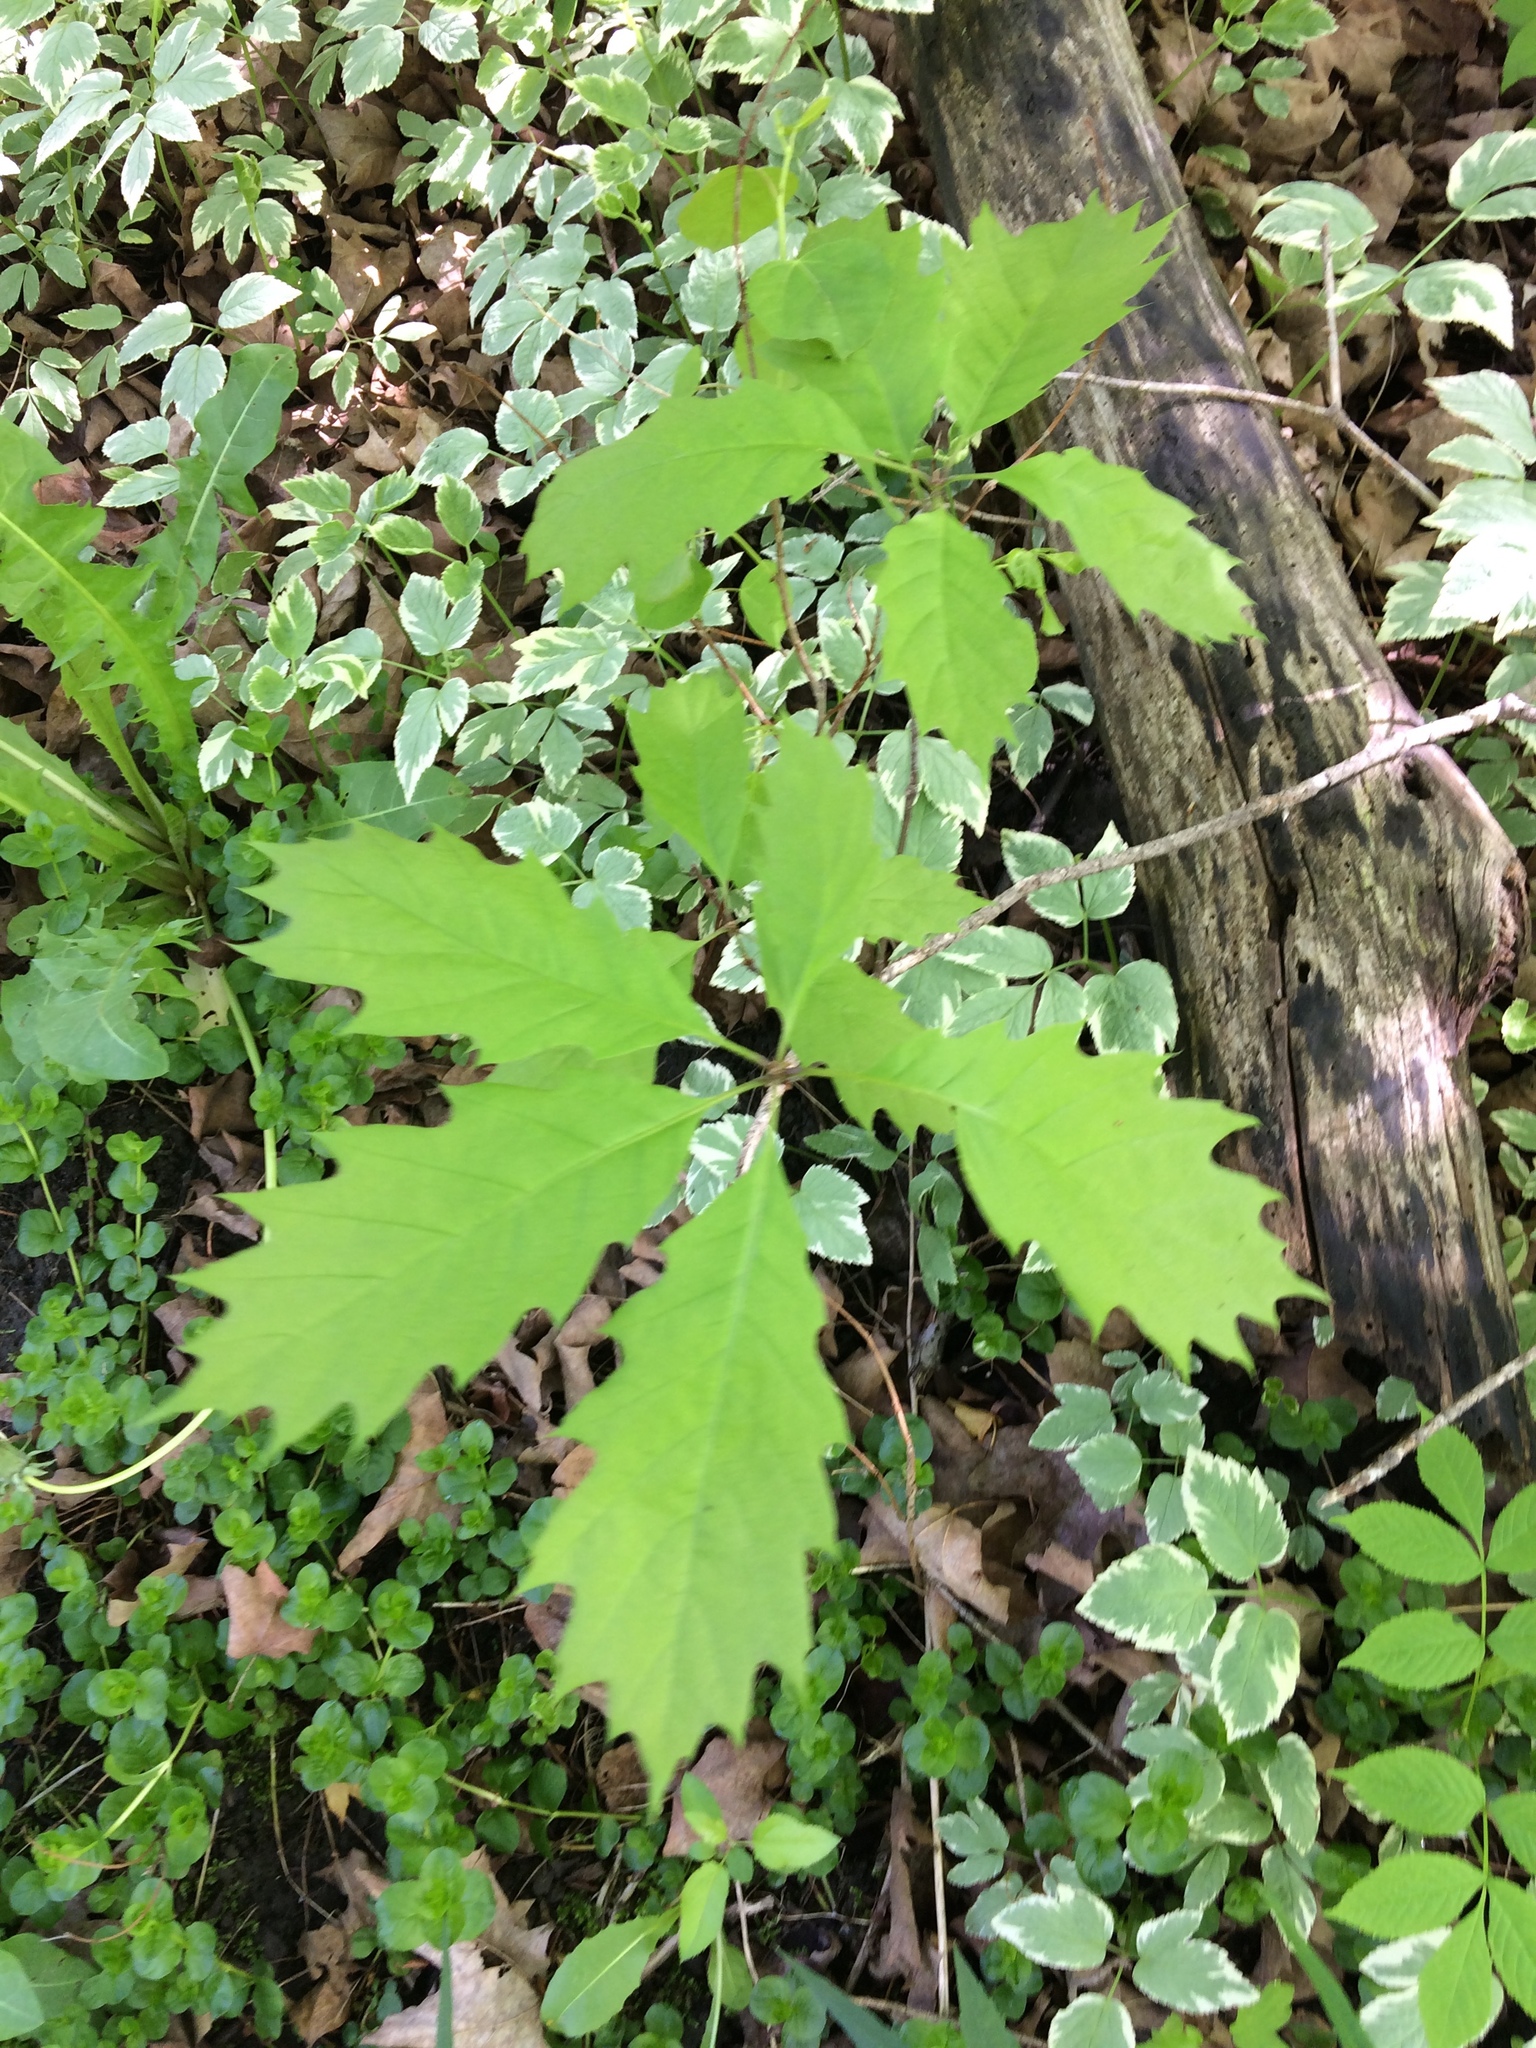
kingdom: Plantae
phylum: Tracheophyta
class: Magnoliopsida
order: Fagales
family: Fagaceae
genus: Quercus
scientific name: Quercus rubra
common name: Red oak
